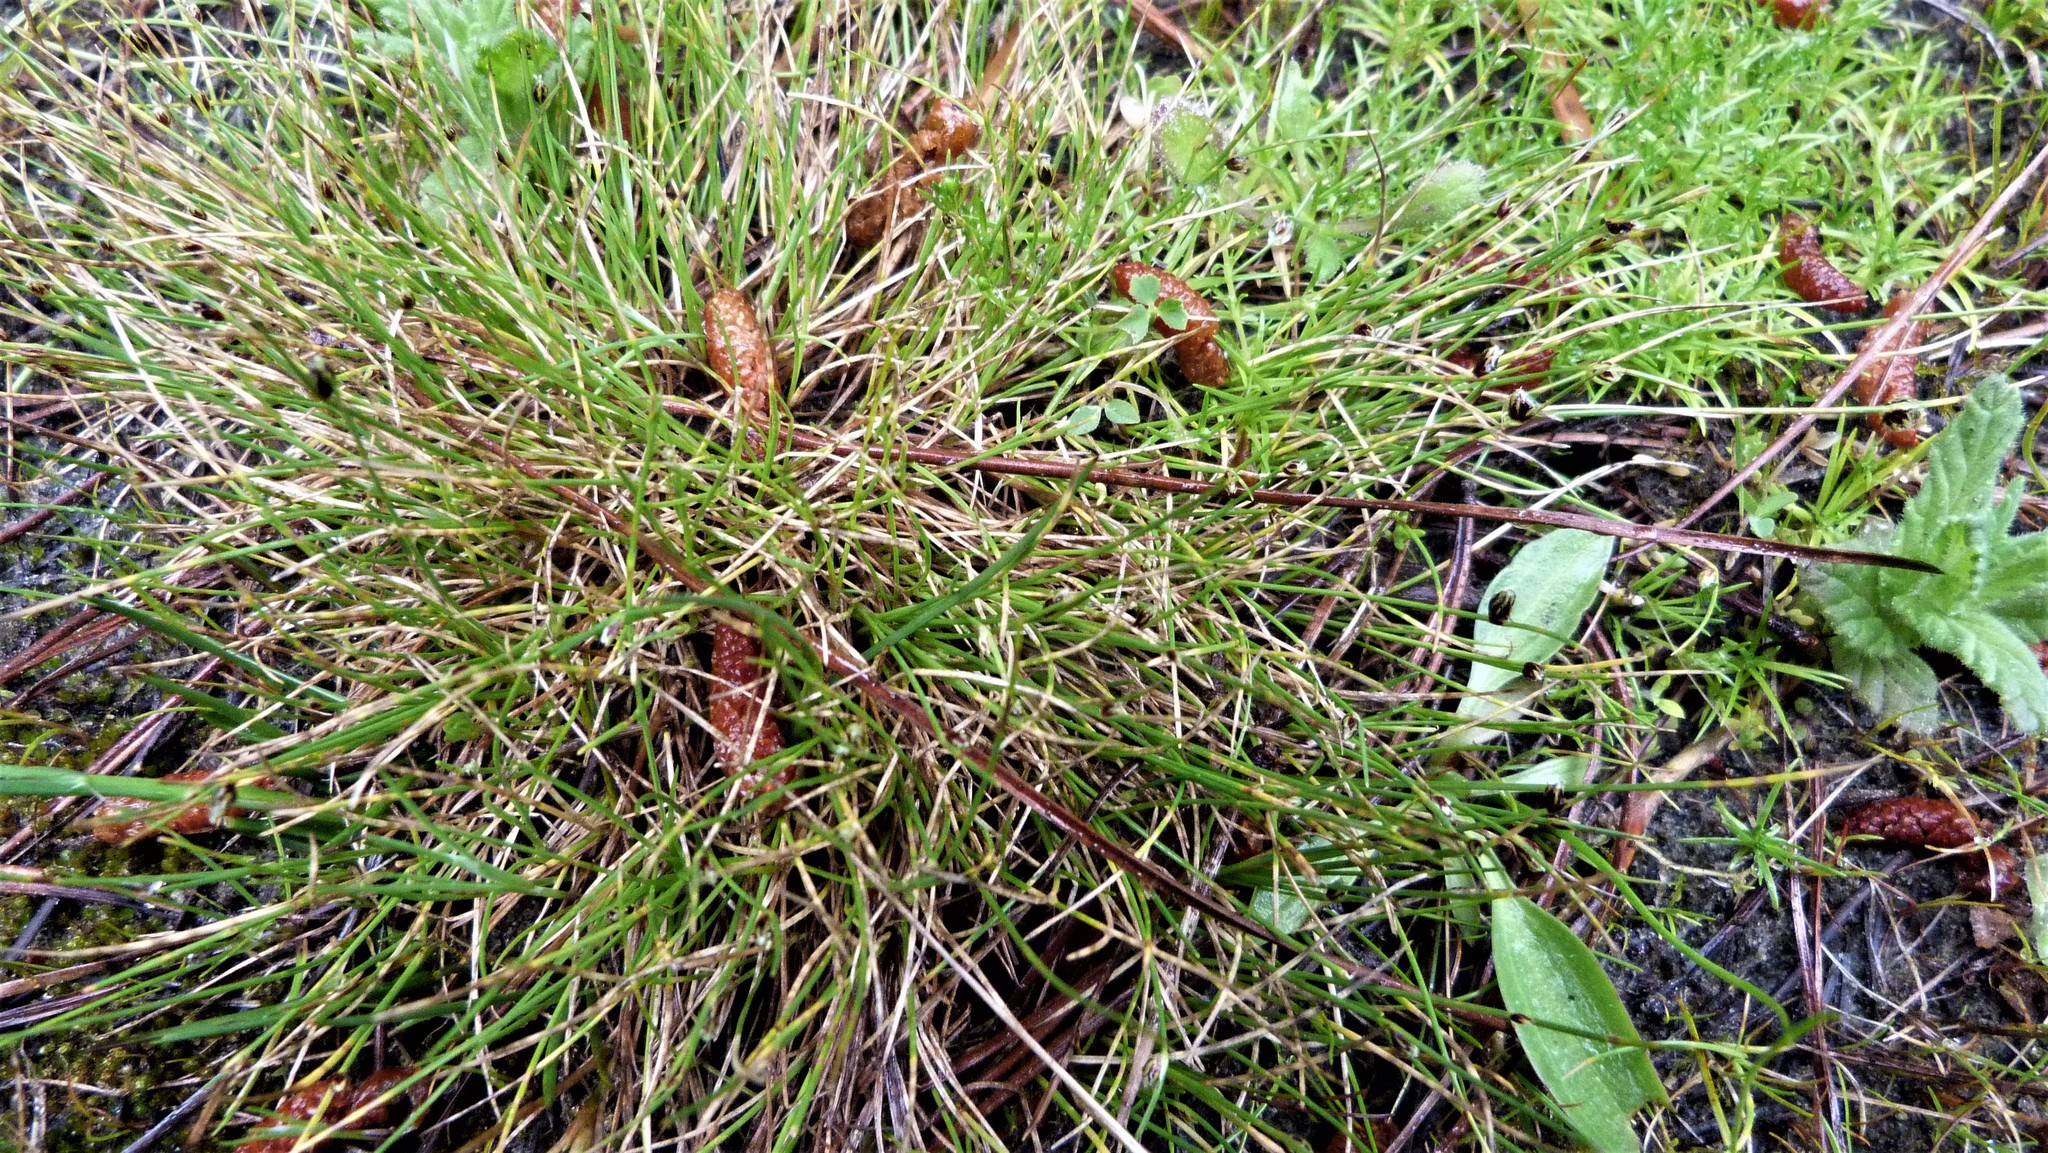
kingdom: Plantae
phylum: Tracheophyta
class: Liliopsida
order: Poales
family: Cyperaceae
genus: Isolepis
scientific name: Isolepis cernua
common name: Slender club-rush
